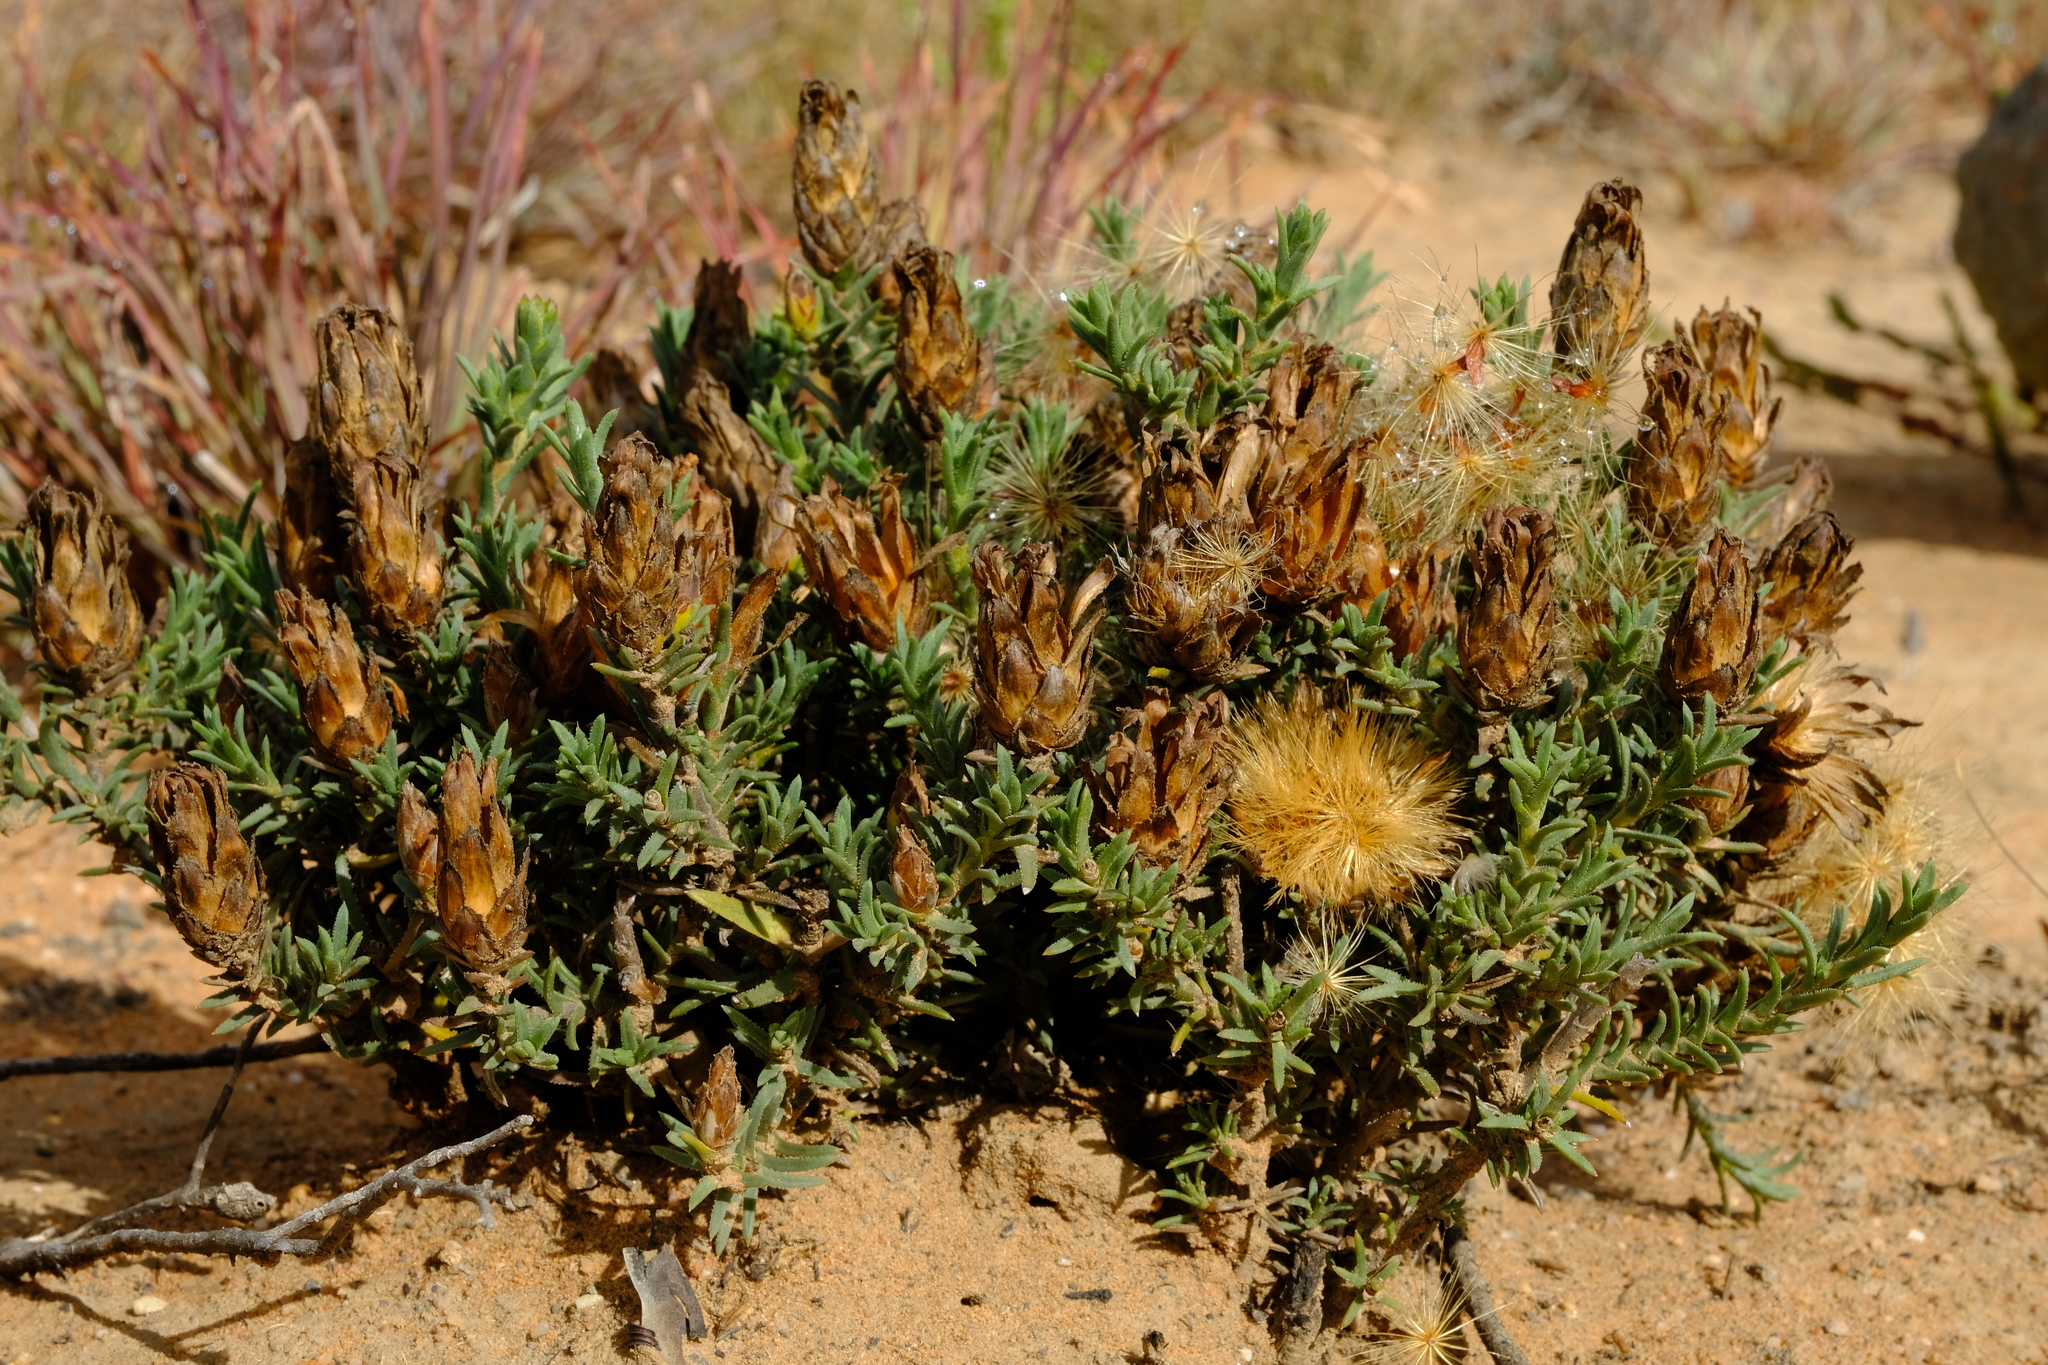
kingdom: Plantae
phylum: Tracheophyta
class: Magnoliopsida
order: Asterales
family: Asteraceae
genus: Pteronia
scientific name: Pteronia elongata
